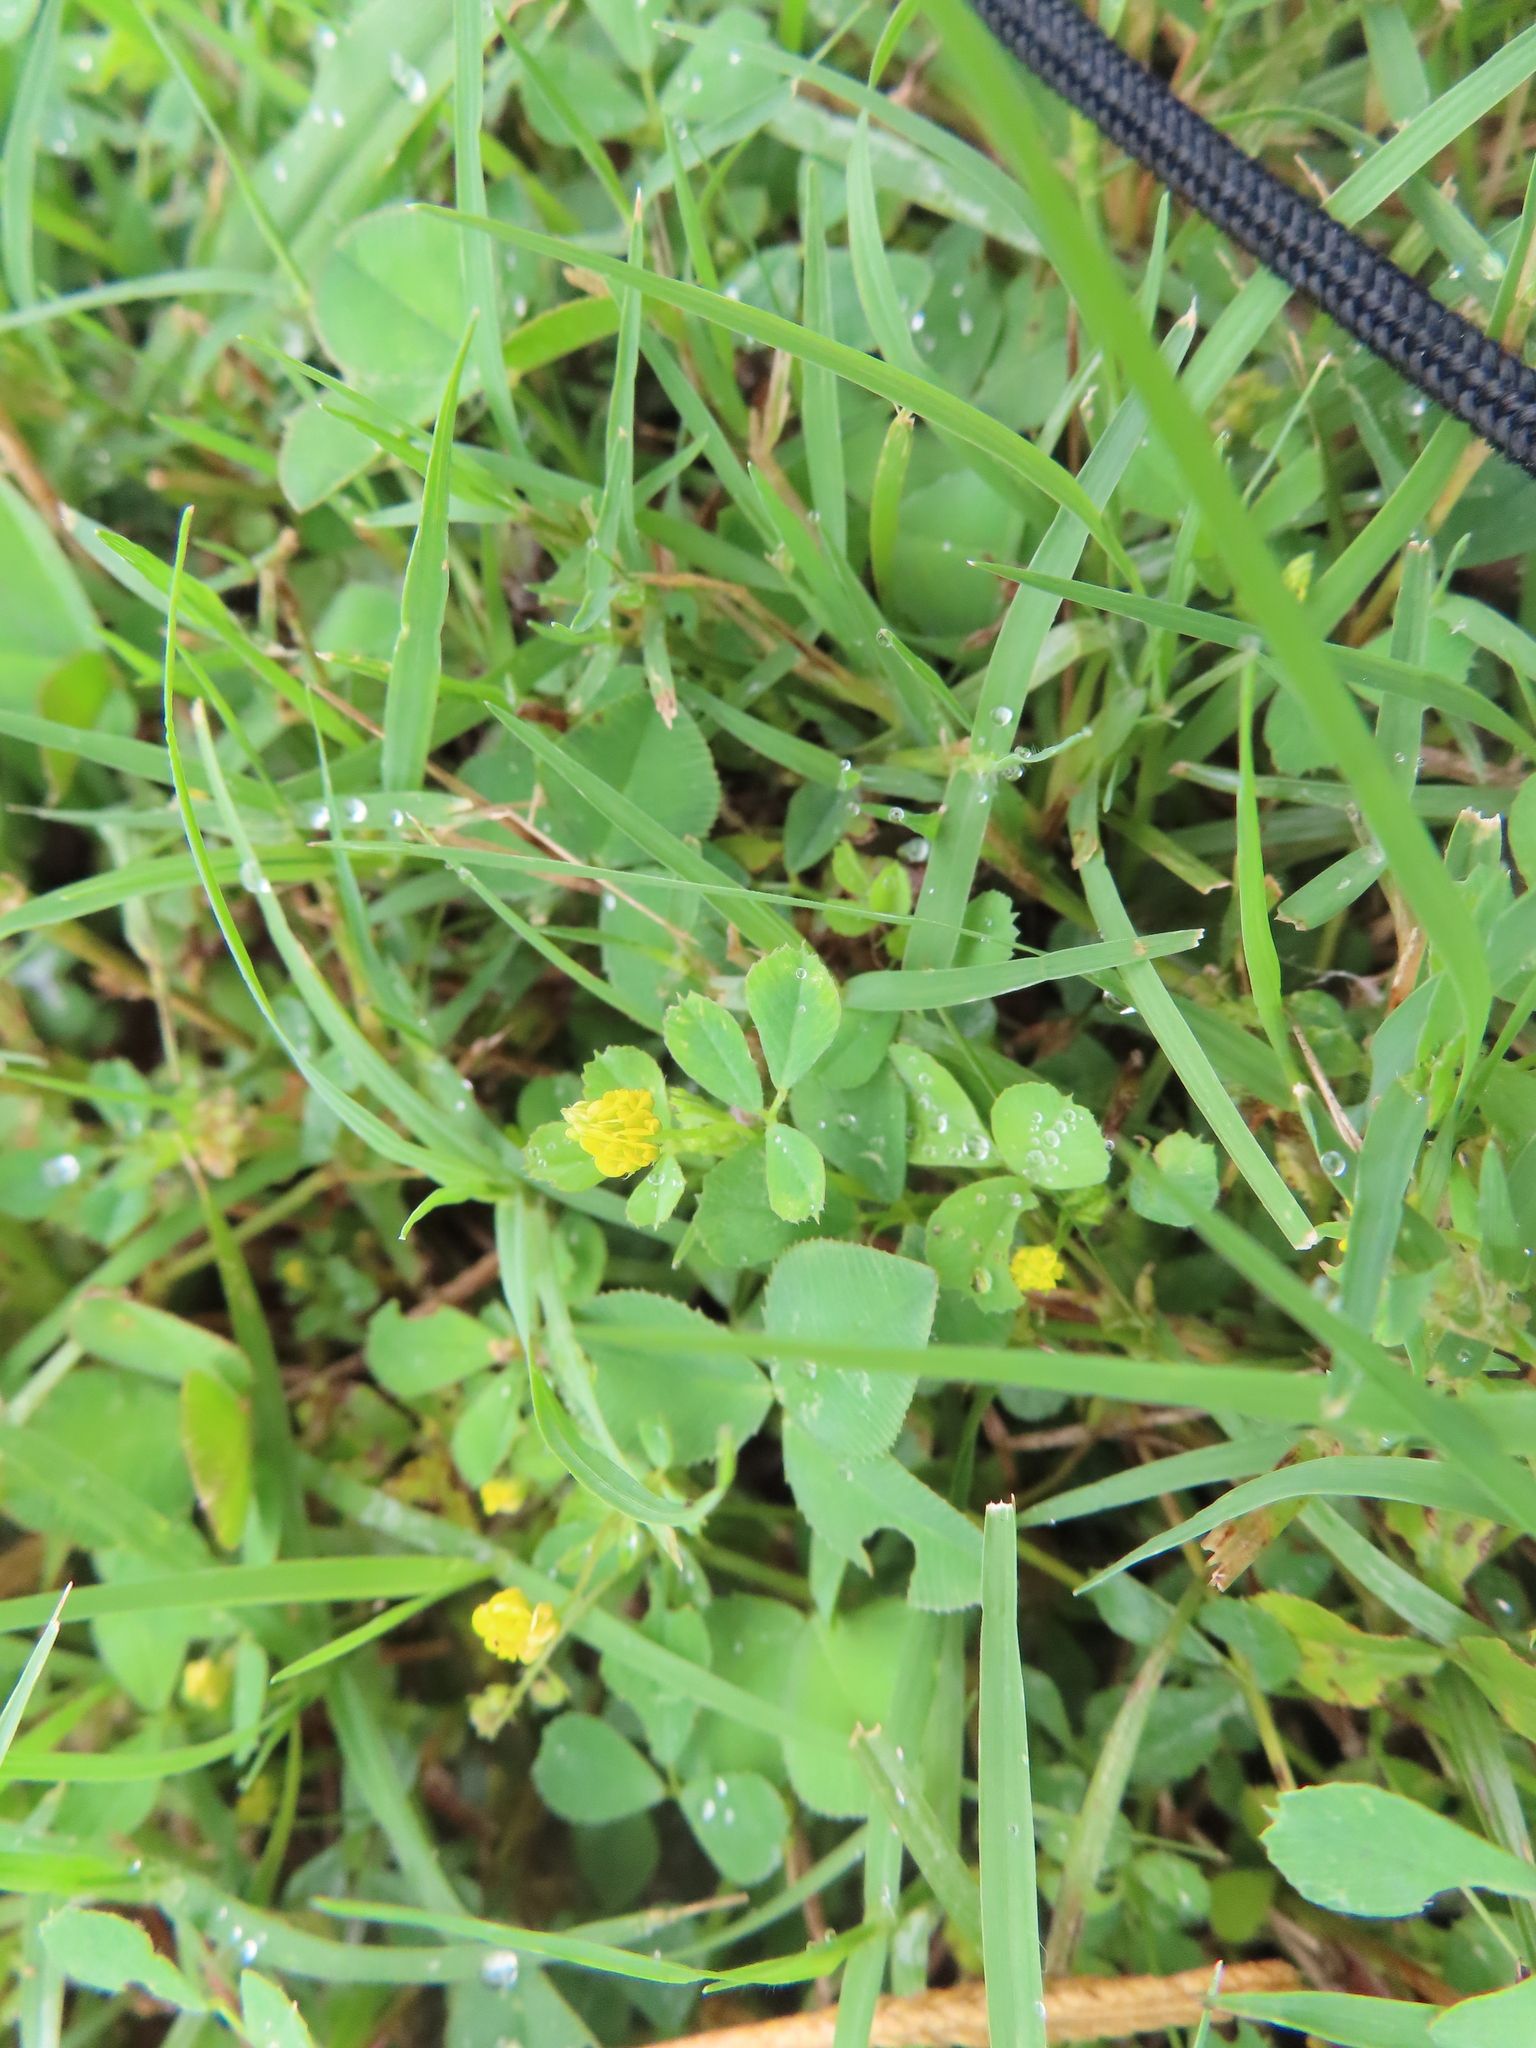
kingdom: Plantae
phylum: Tracheophyta
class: Magnoliopsida
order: Fabales
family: Fabaceae
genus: Medicago
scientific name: Medicago lupulina
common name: Black medick
